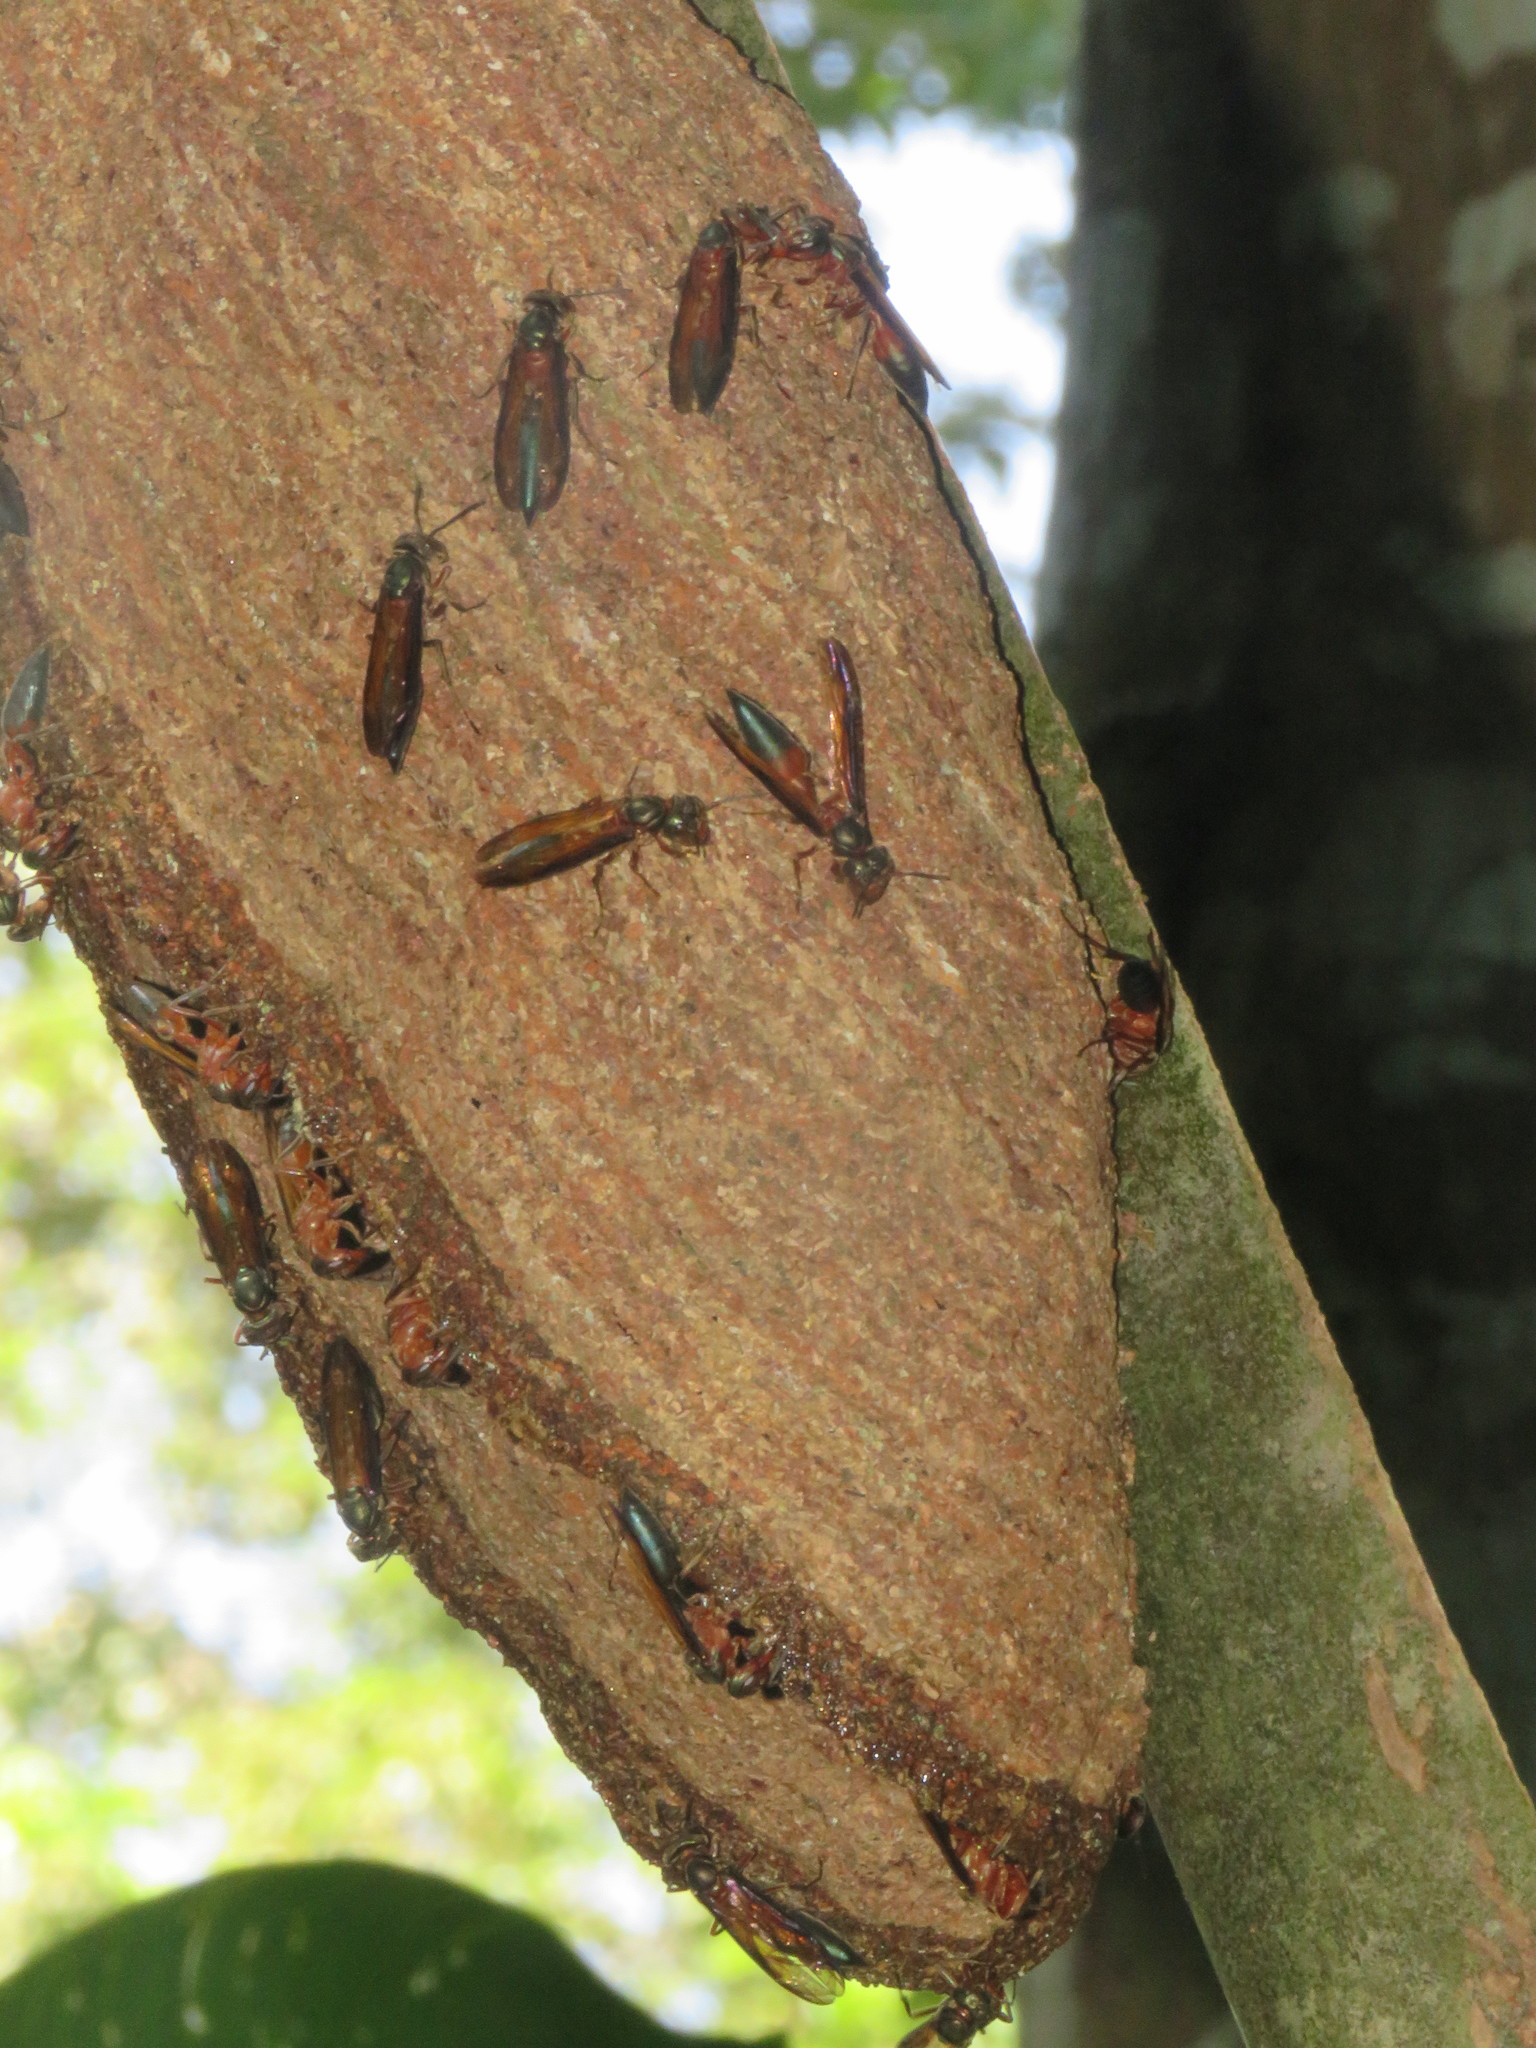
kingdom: Animalia
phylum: Arthropoda
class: Insecta
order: Hymenoptera
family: Vespidae
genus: Synoeca
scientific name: Synoeca chalybea
